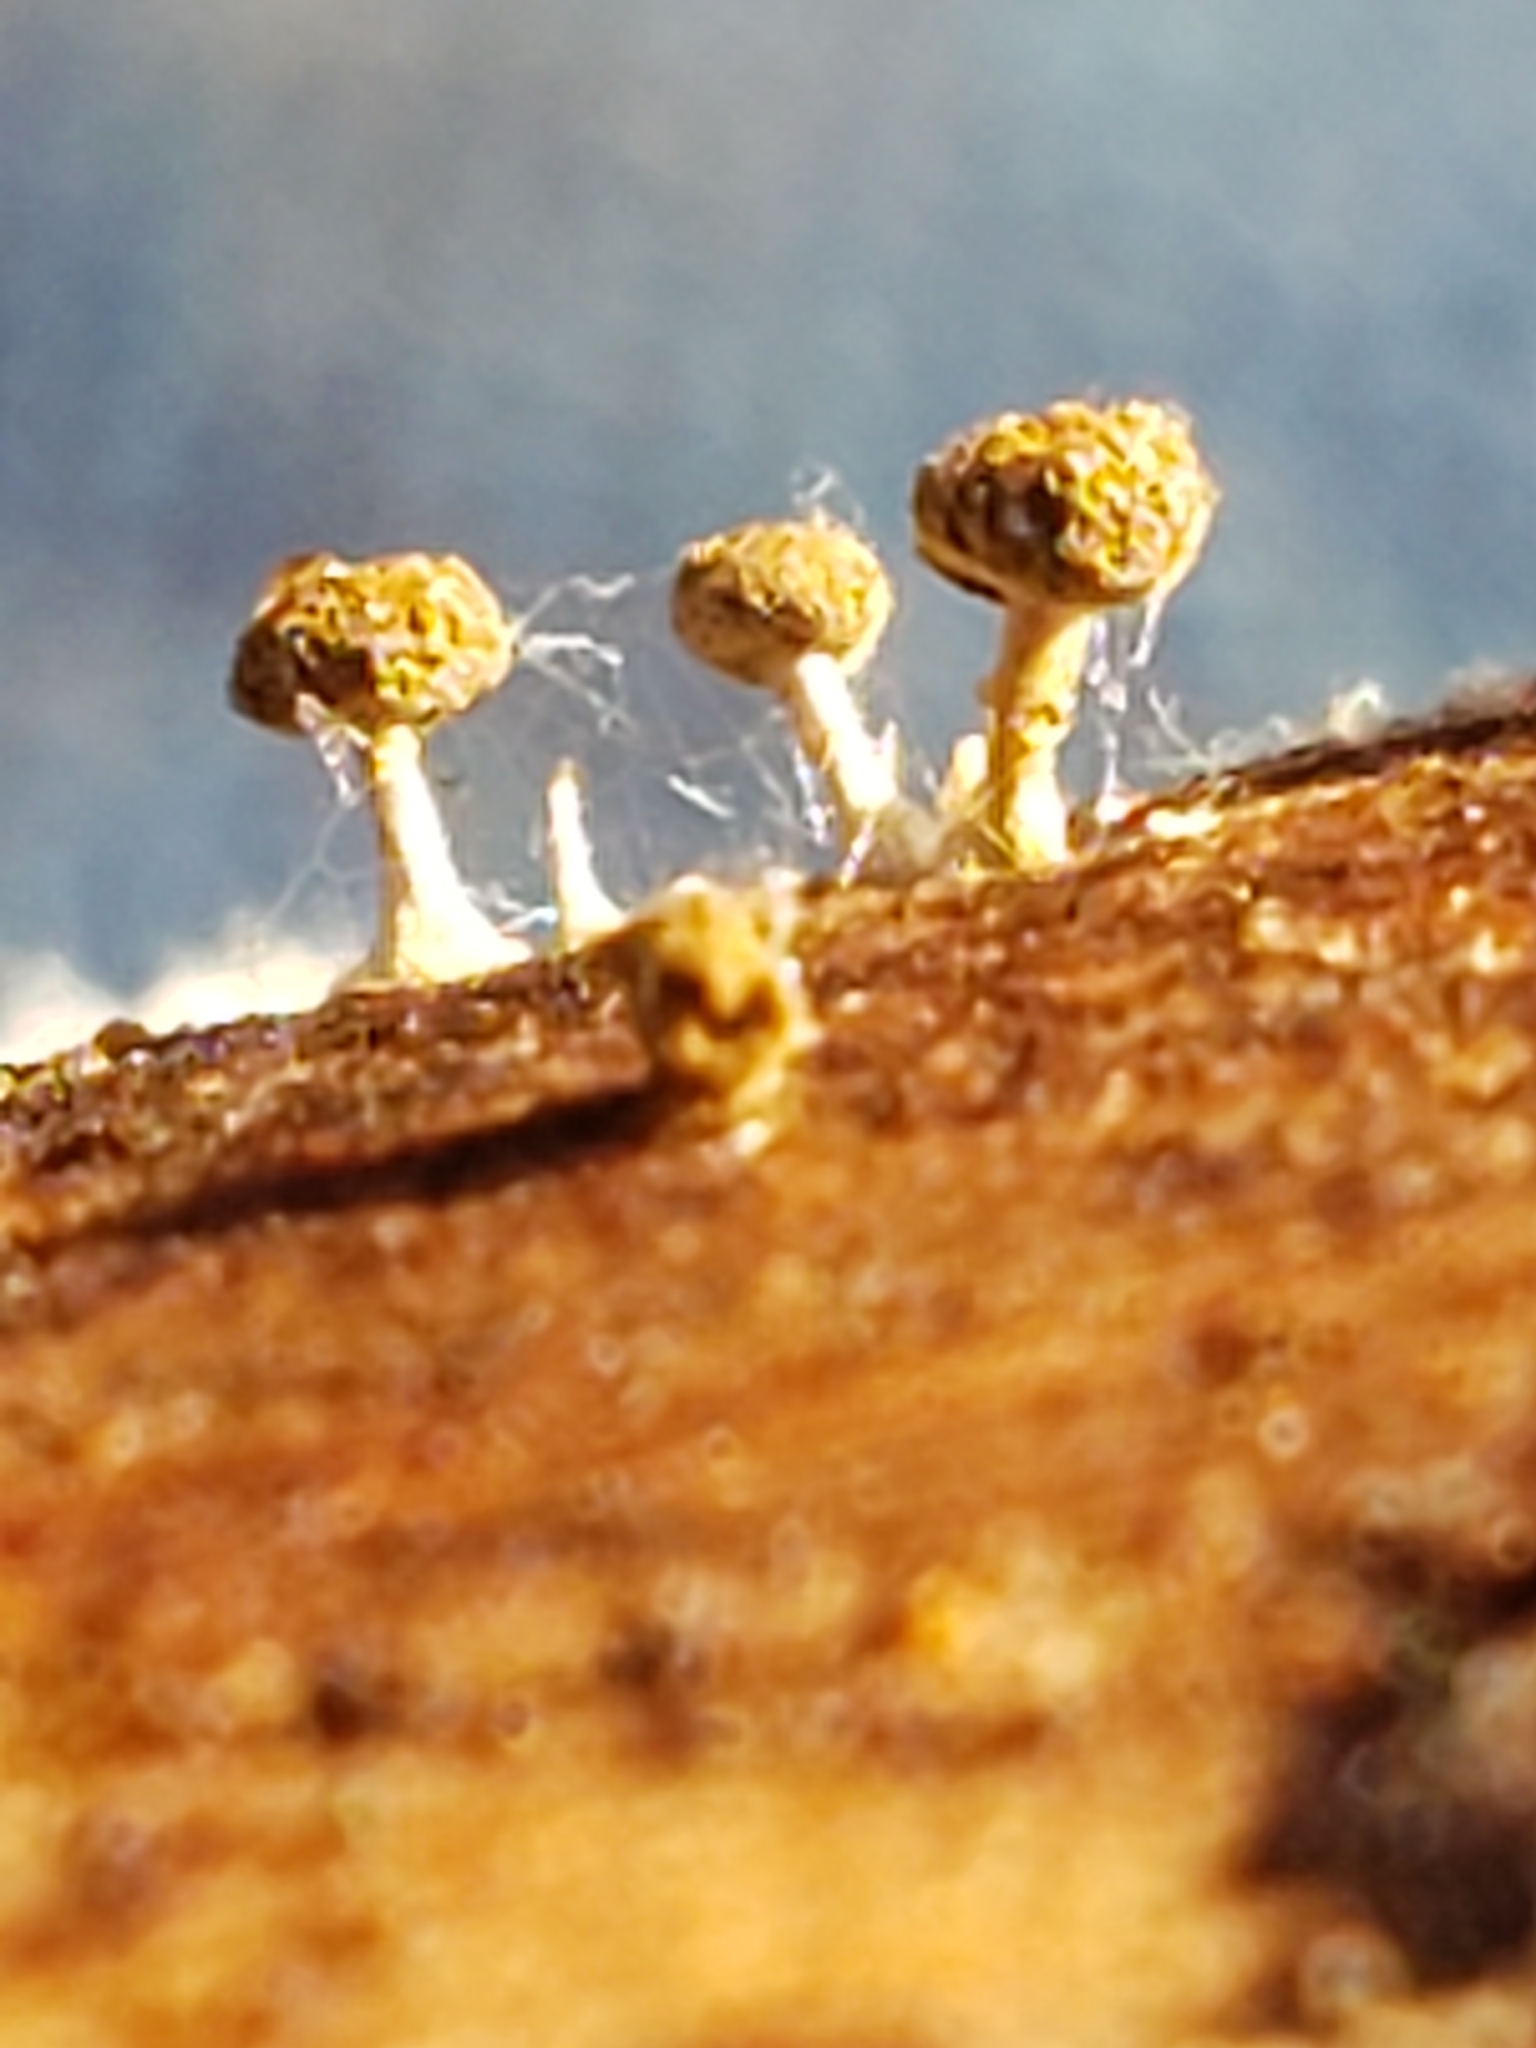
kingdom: Fungi
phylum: Basidiomycota
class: Atractiellomycetes
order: Atractiellales
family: Phleogenaceae
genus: Phleogena
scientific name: Phleogena faginea
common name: Fenugreek stalkball
